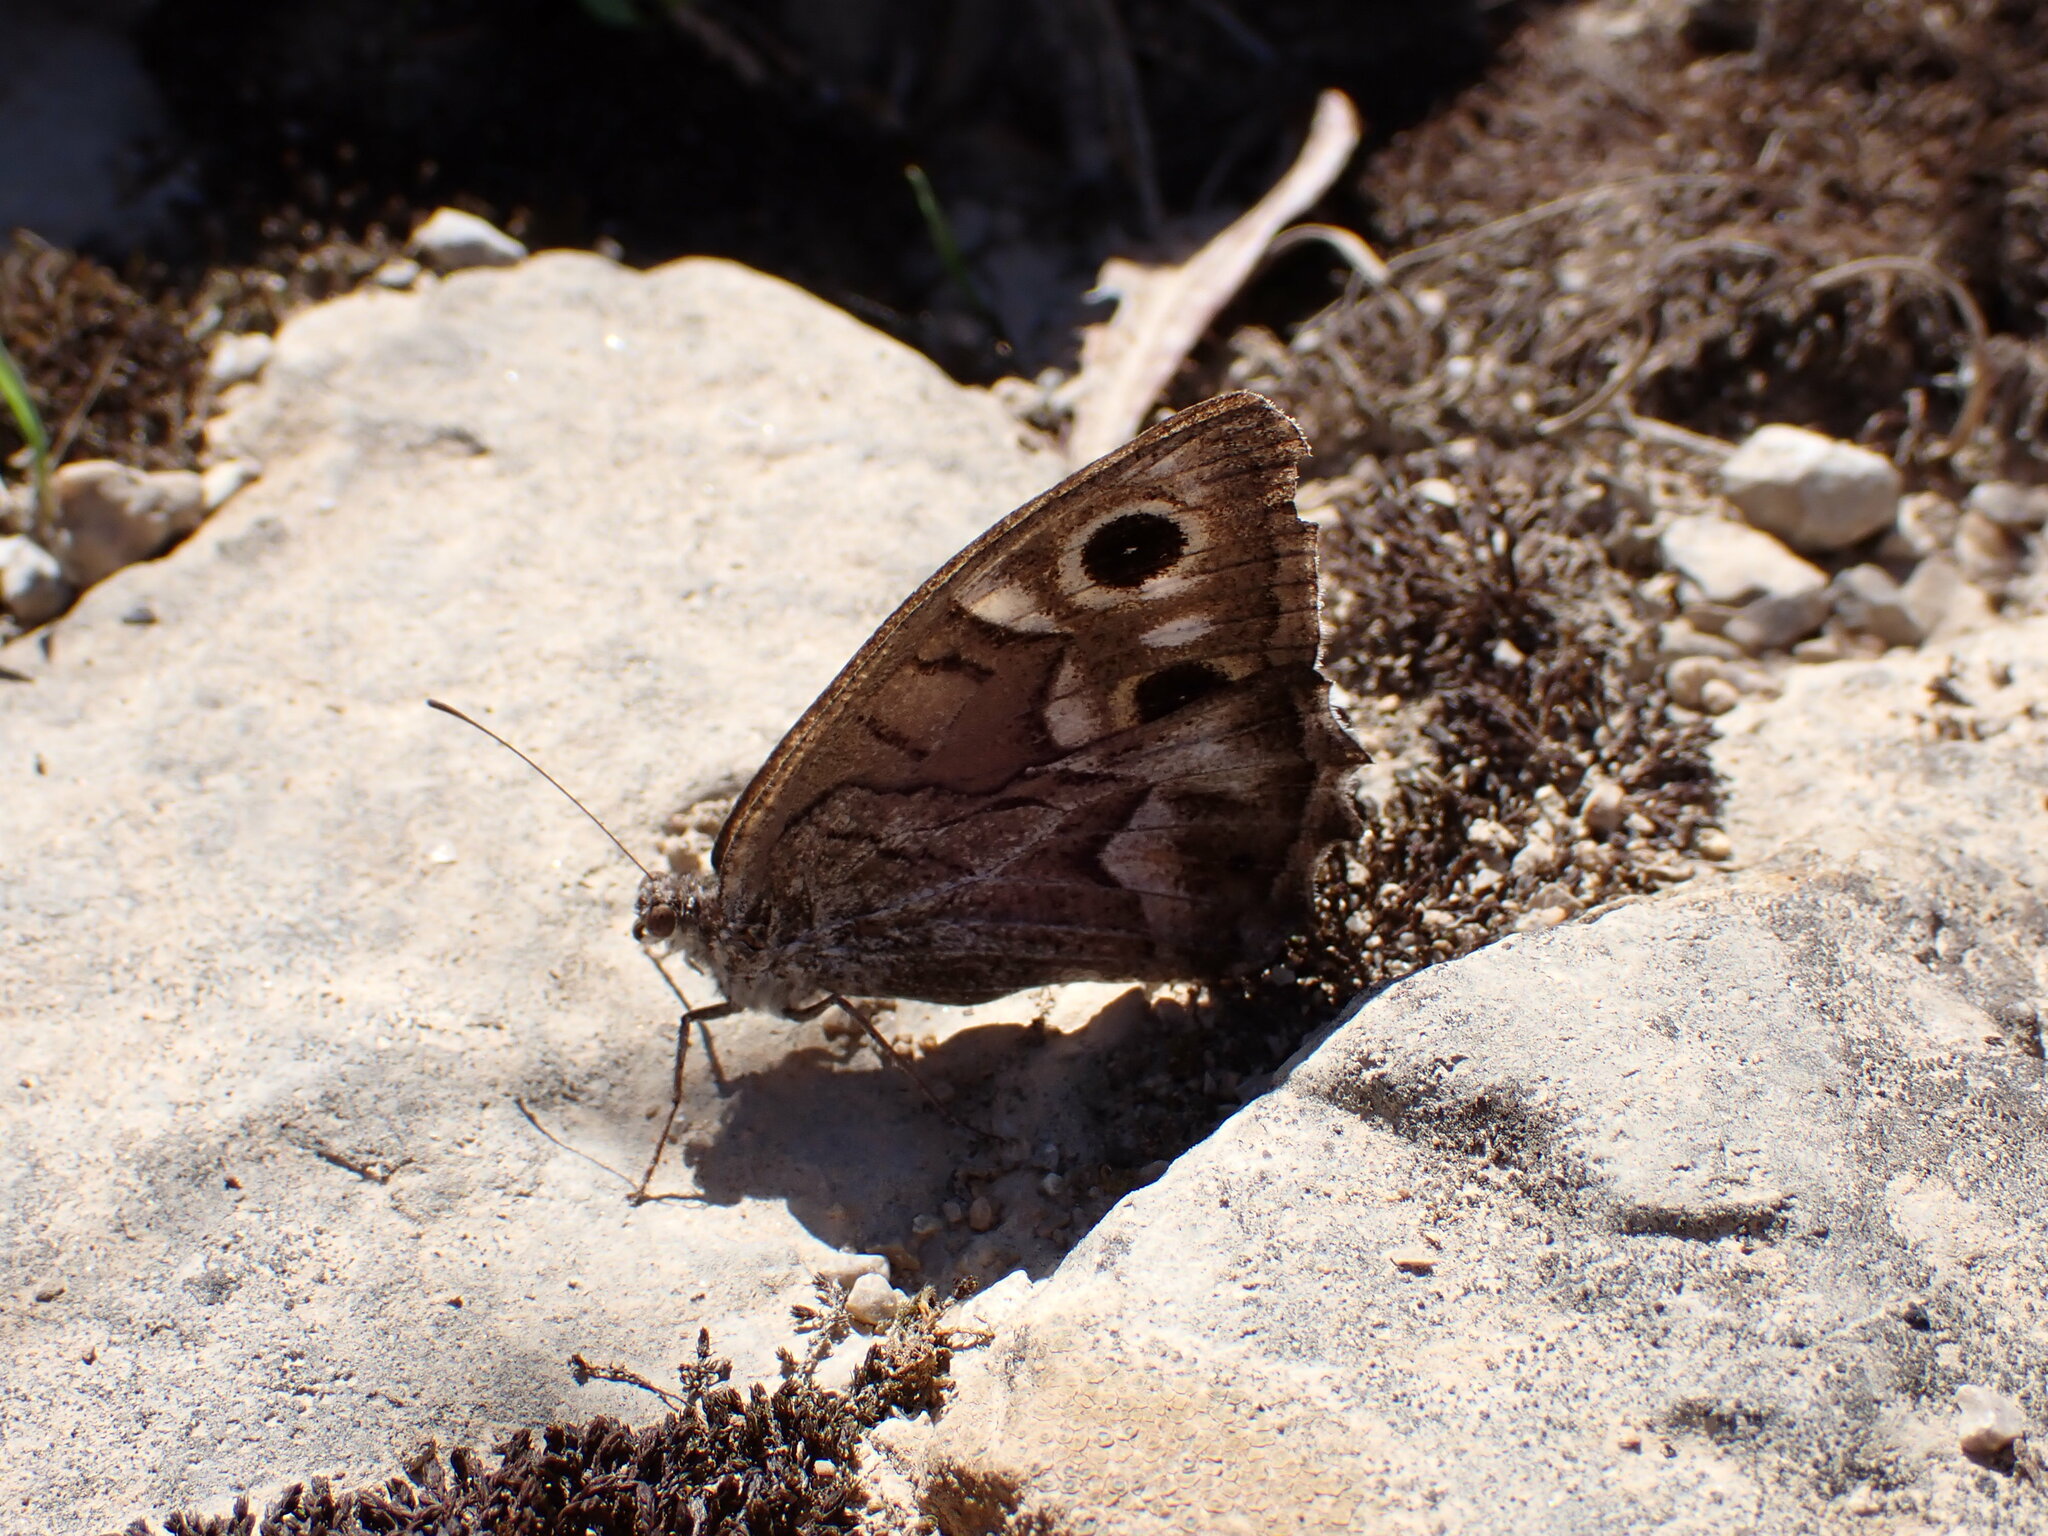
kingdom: Animalia
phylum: Arthropoda
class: Insecta
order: Lepidoptera
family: Nymphalidae
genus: Hipparchia
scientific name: Hipparchia fidia
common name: Striped grayling
